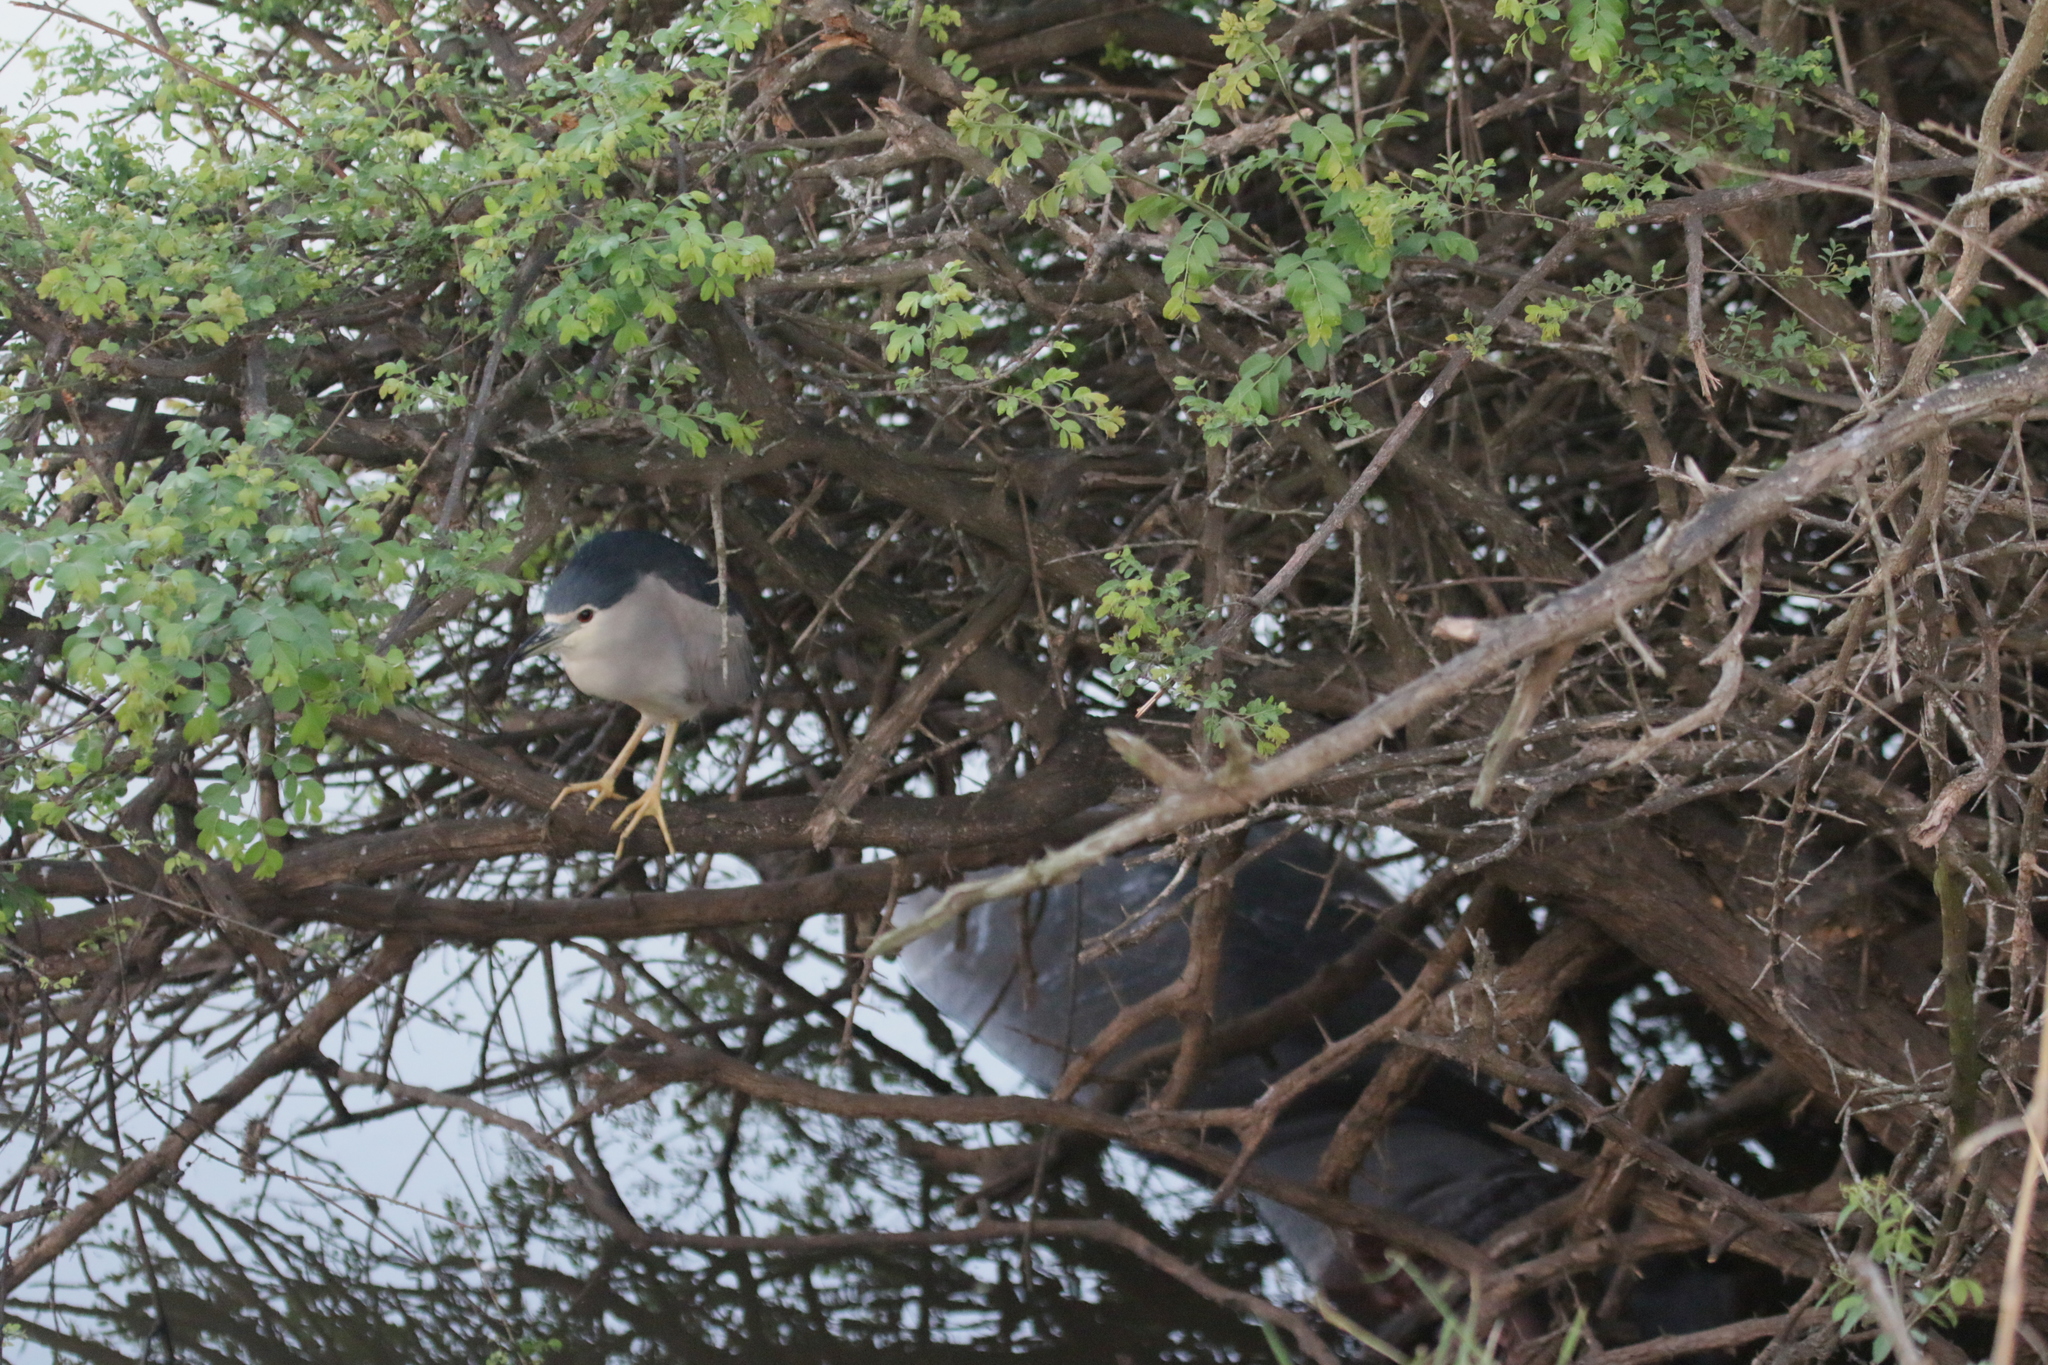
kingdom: Animalia
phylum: Chordata
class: Aves
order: Pelecaniformes
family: Ardeidae
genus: Nycticorax
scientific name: Nycticorax nycticorax
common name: Black-crowned night heron
